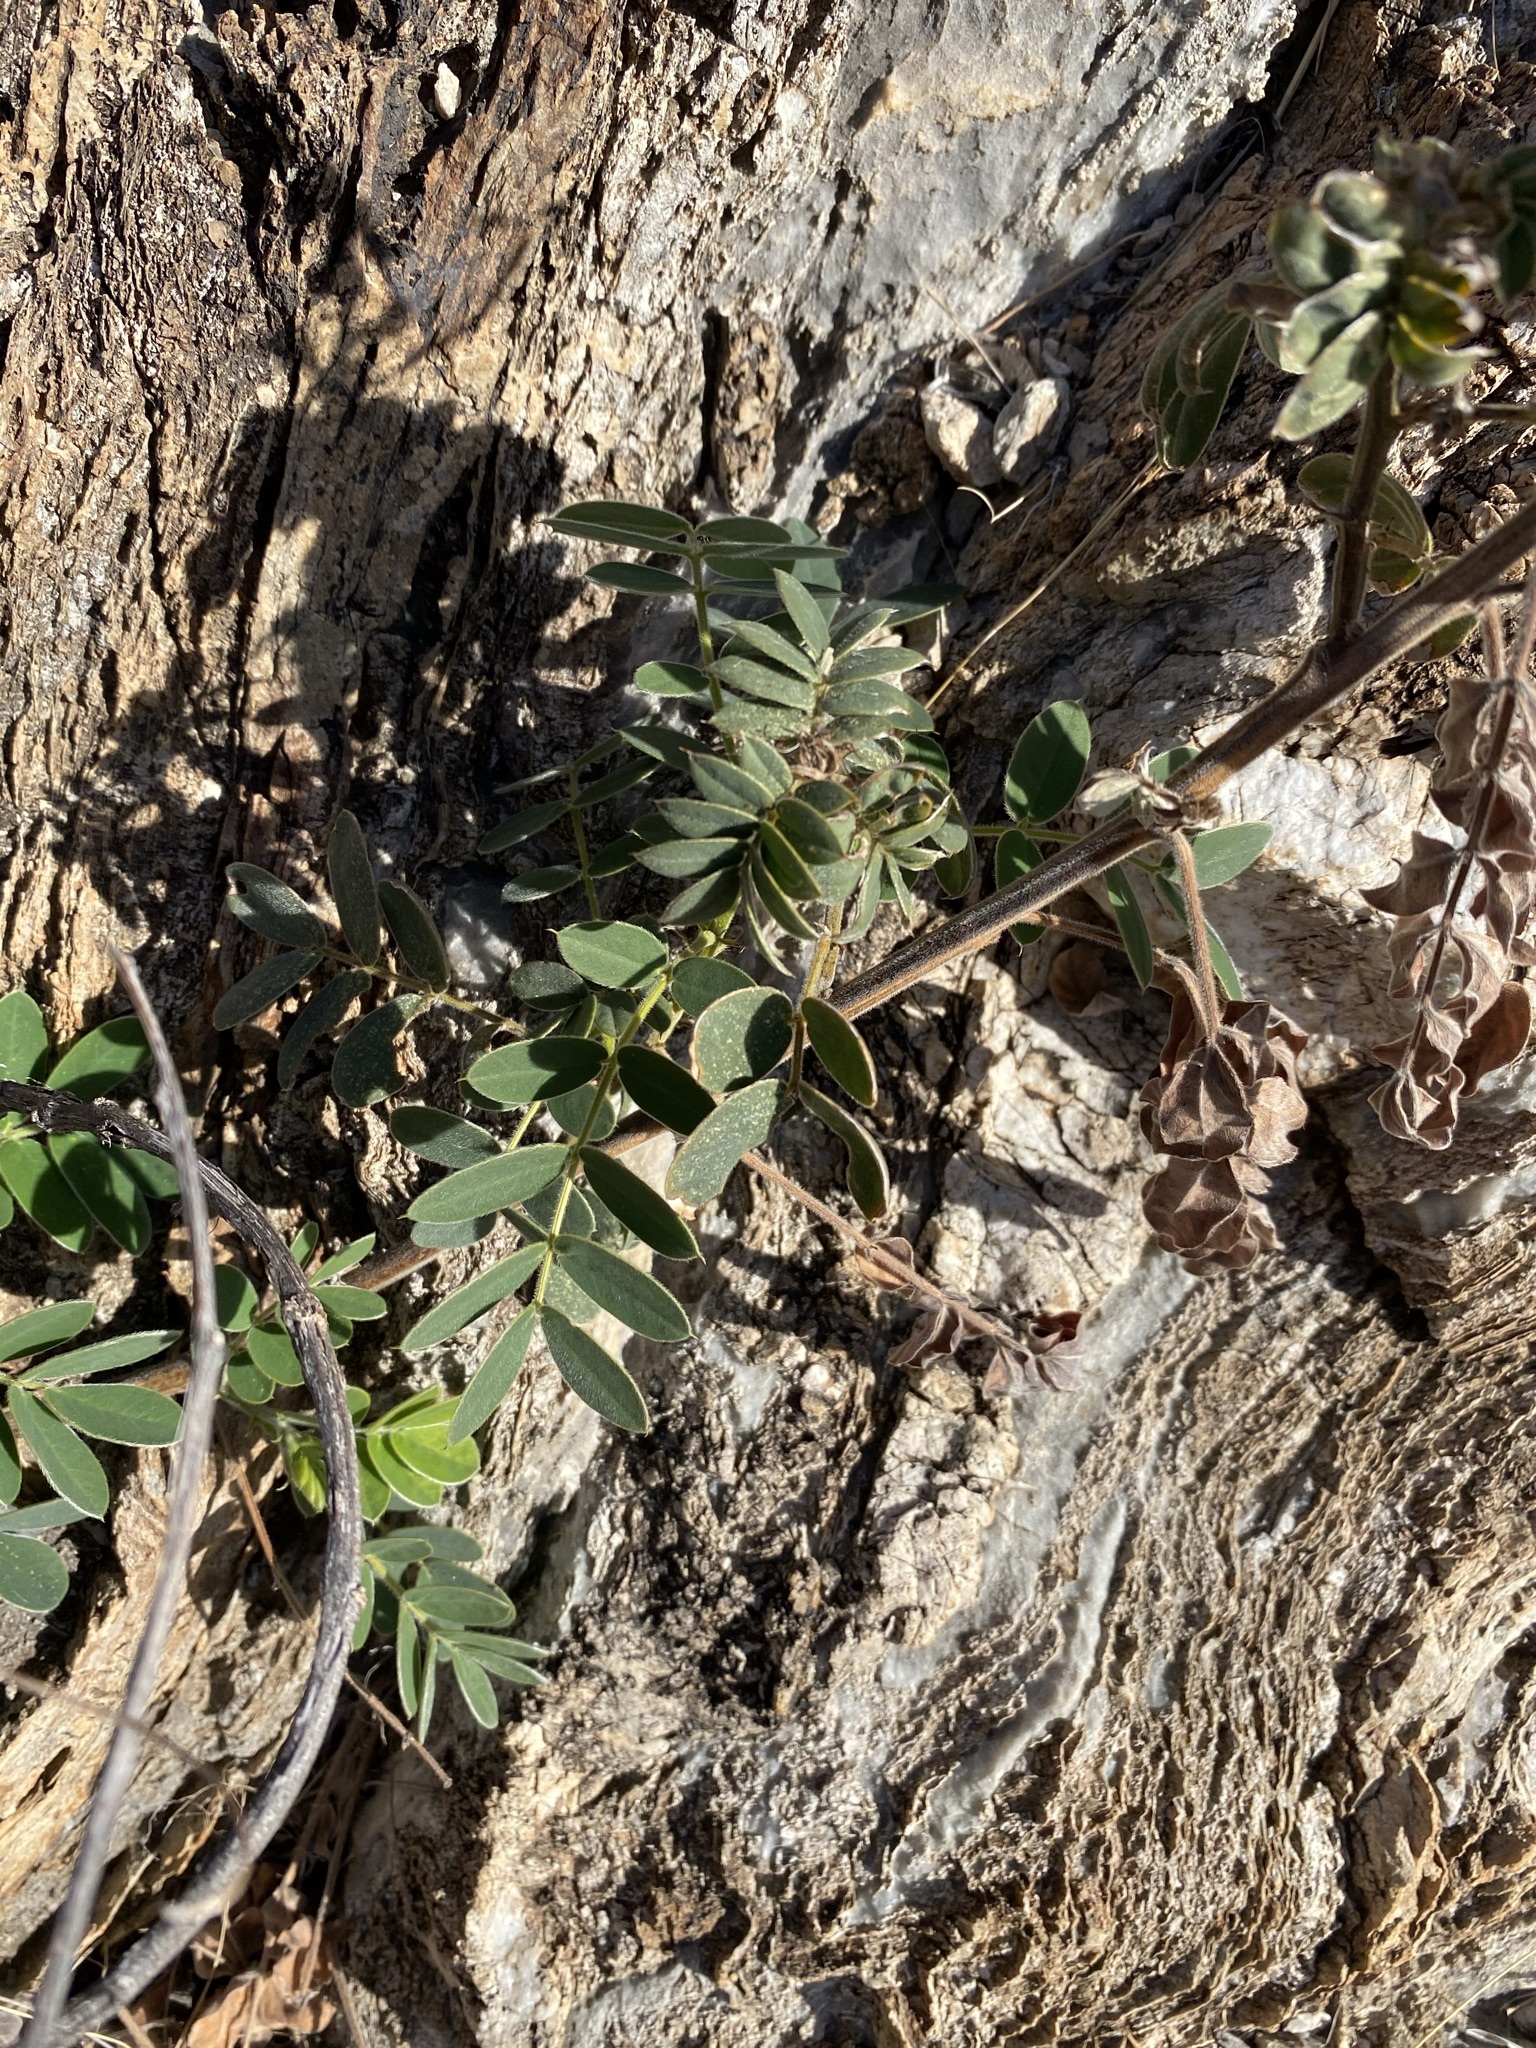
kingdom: Plantae
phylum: Tracheophyta
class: Magnoliopsida
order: Fabales
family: Fabaceae
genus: Senna
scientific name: Senna lindheimeriana
